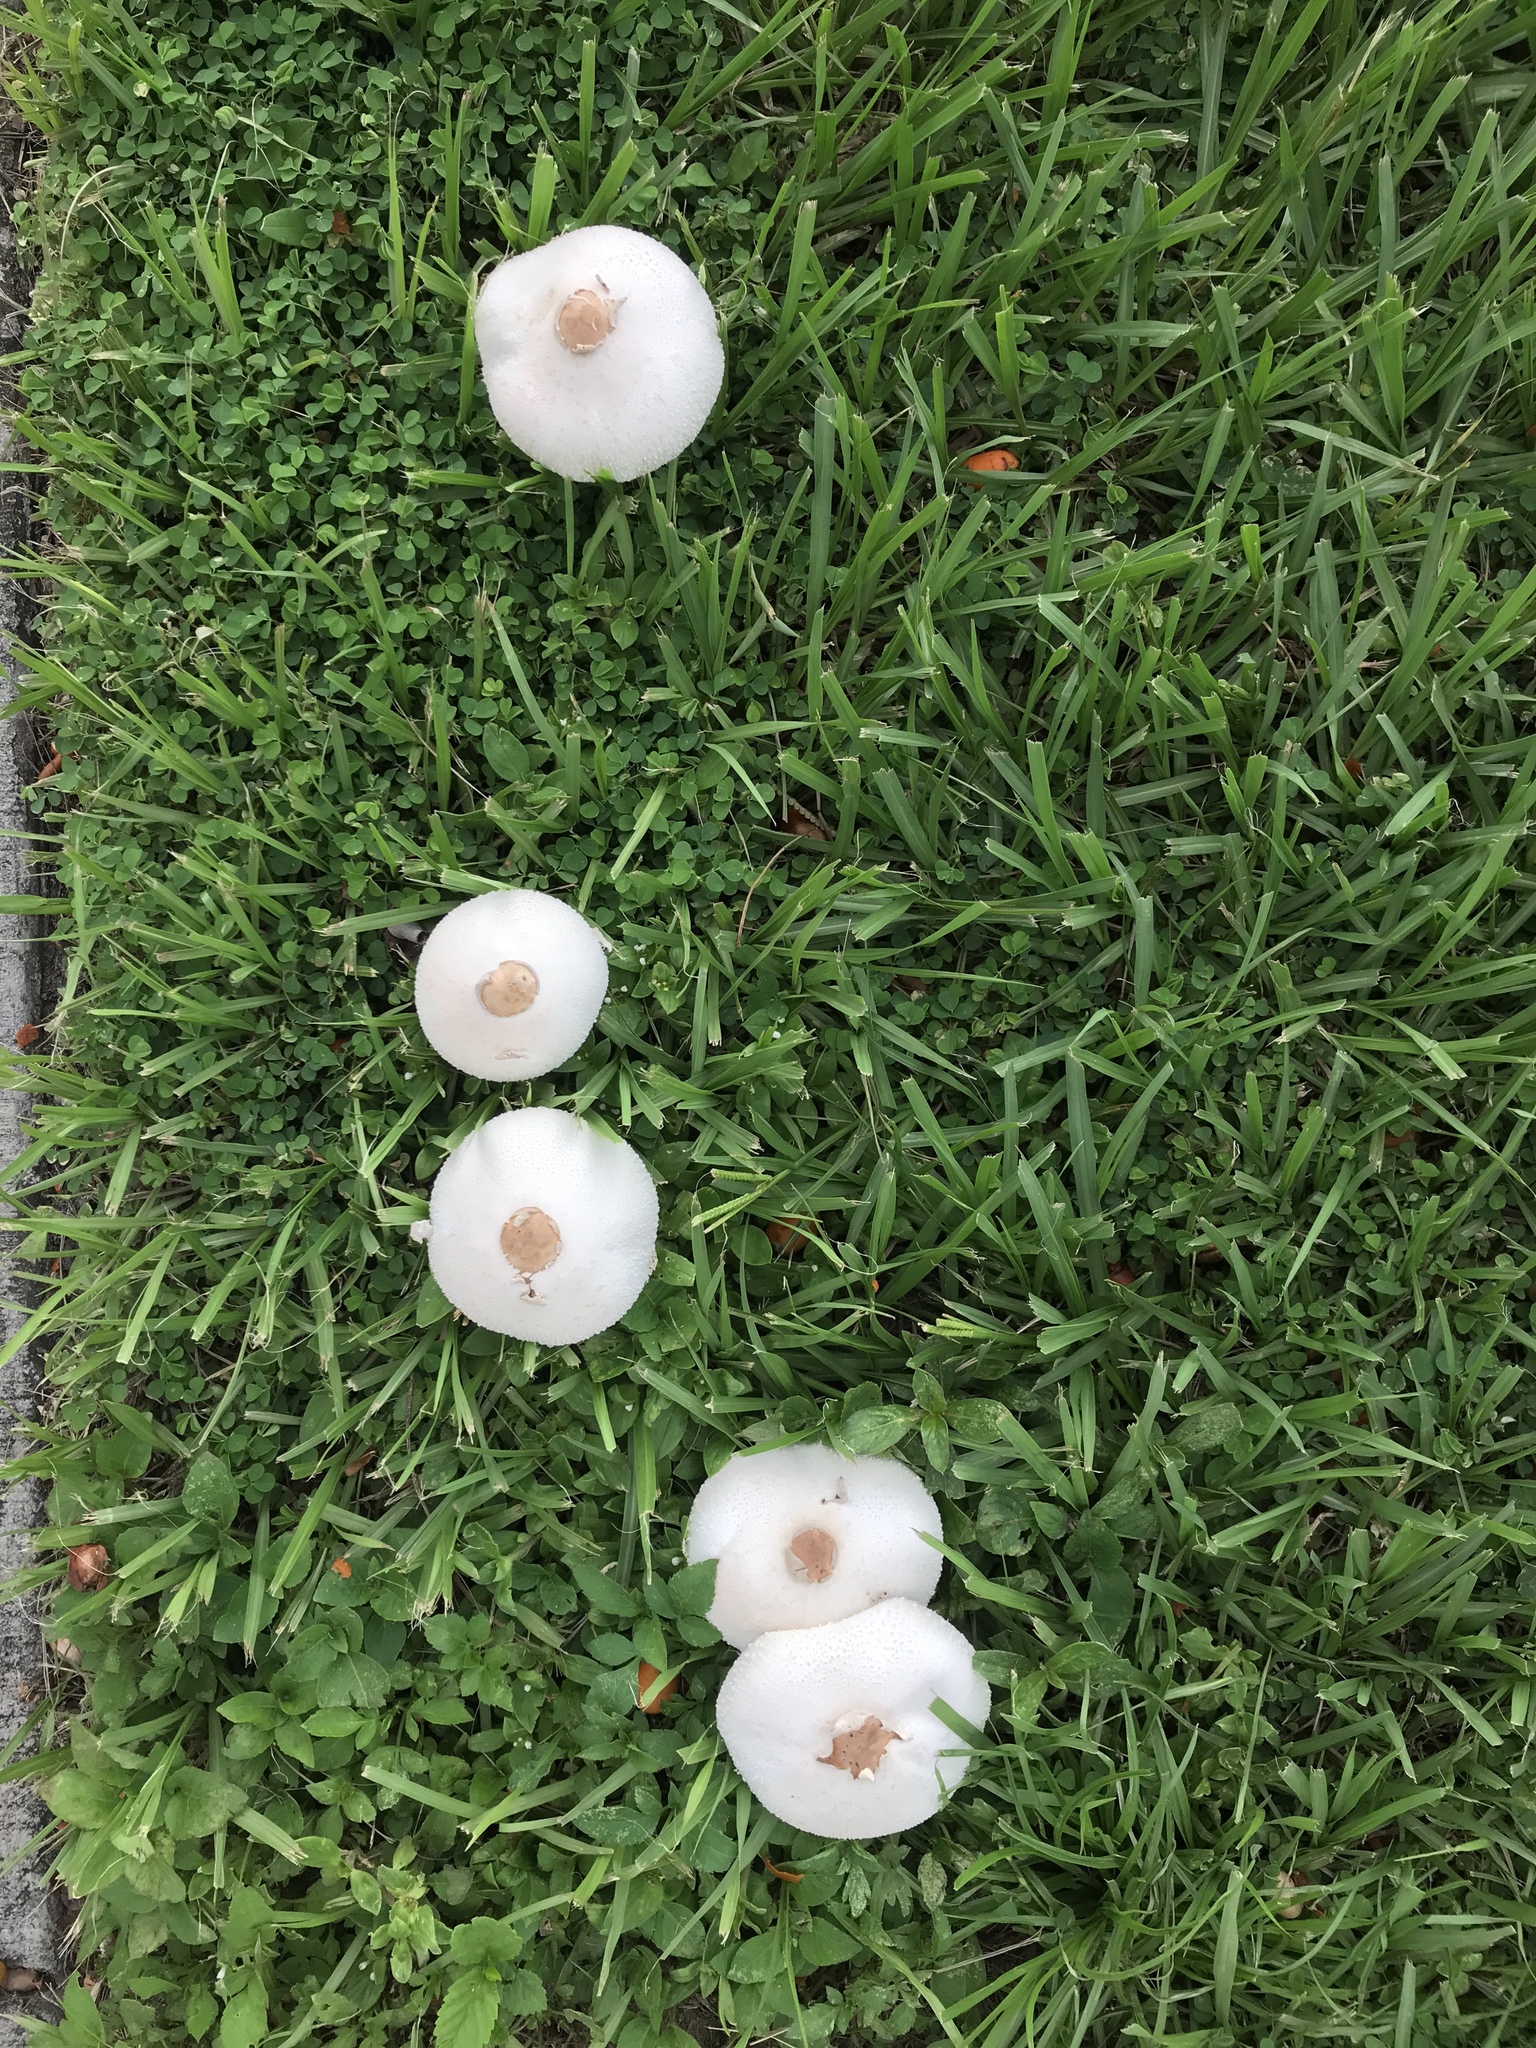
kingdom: Fungi
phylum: Basidiomycota
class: Agaricomycetes
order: Agaricales
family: Agaricaceae
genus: Chlorophyllum
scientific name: Chlorophyllum molybdites
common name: False parasol
